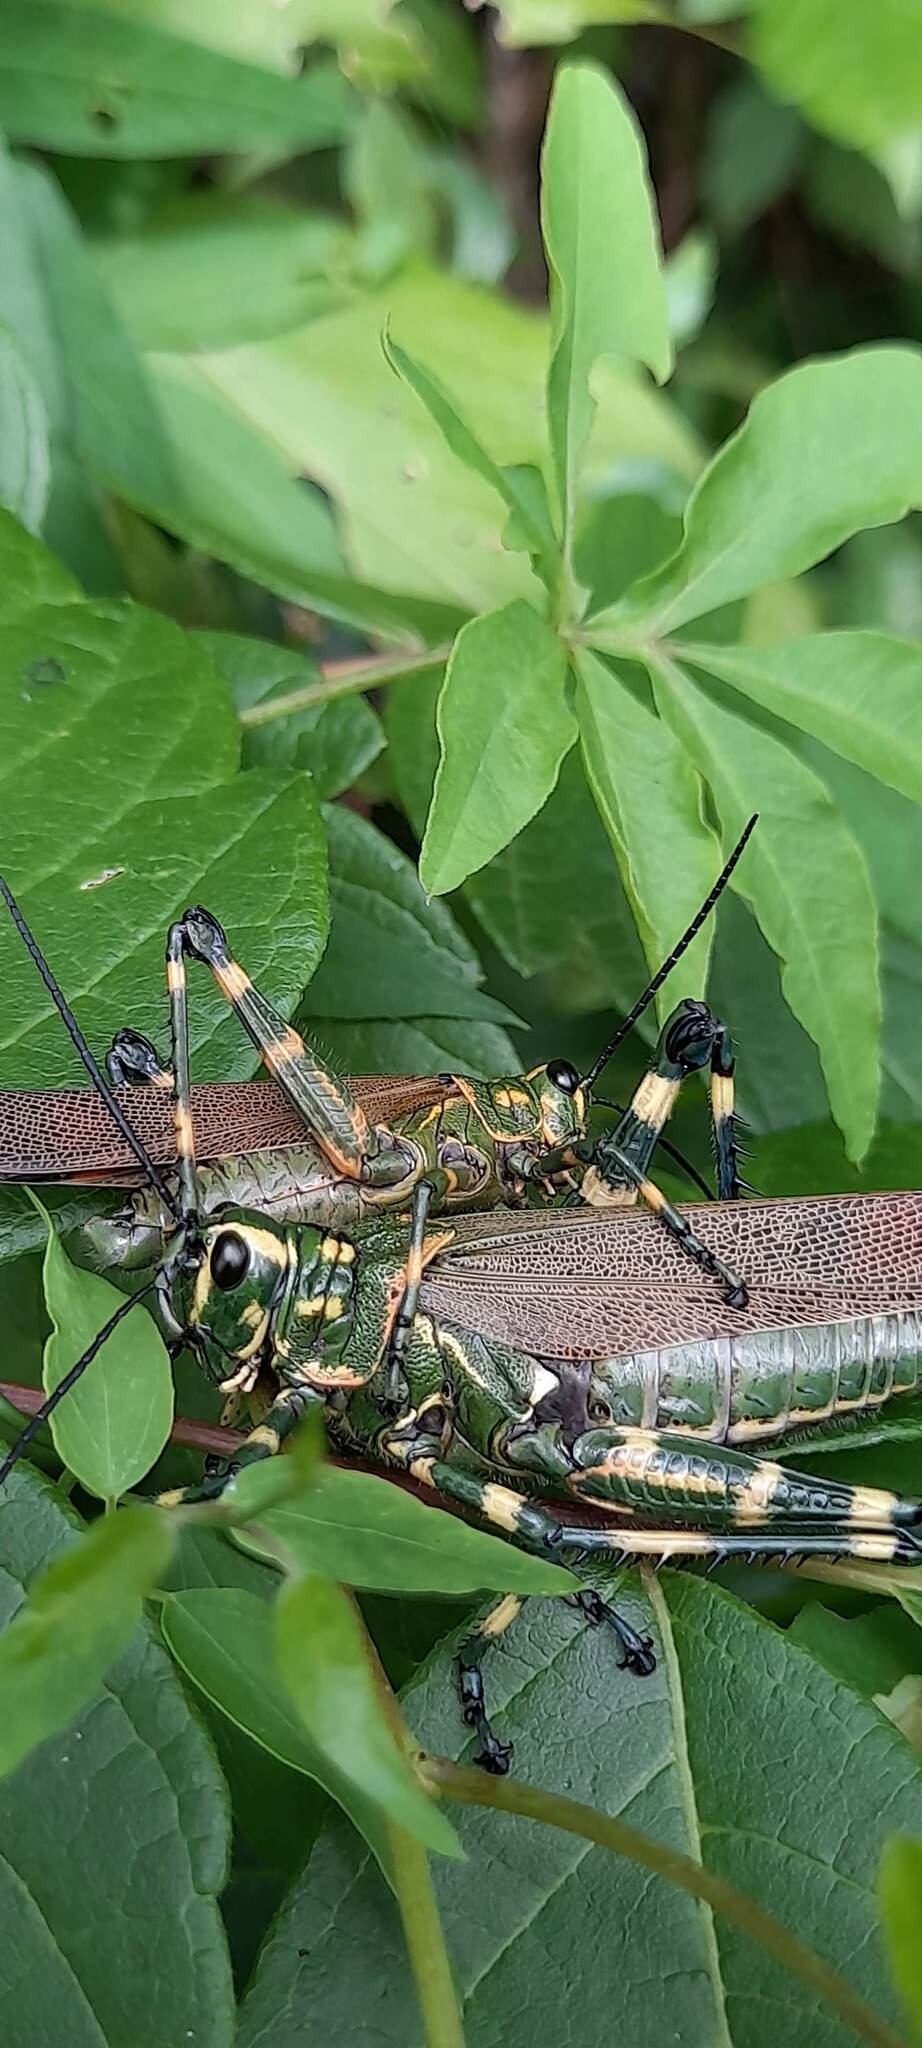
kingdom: Animalia
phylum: Arthropoda
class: Insecta
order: Orthoptera
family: Romaleidae
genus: Chromacris
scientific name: Chromacris speciosa
